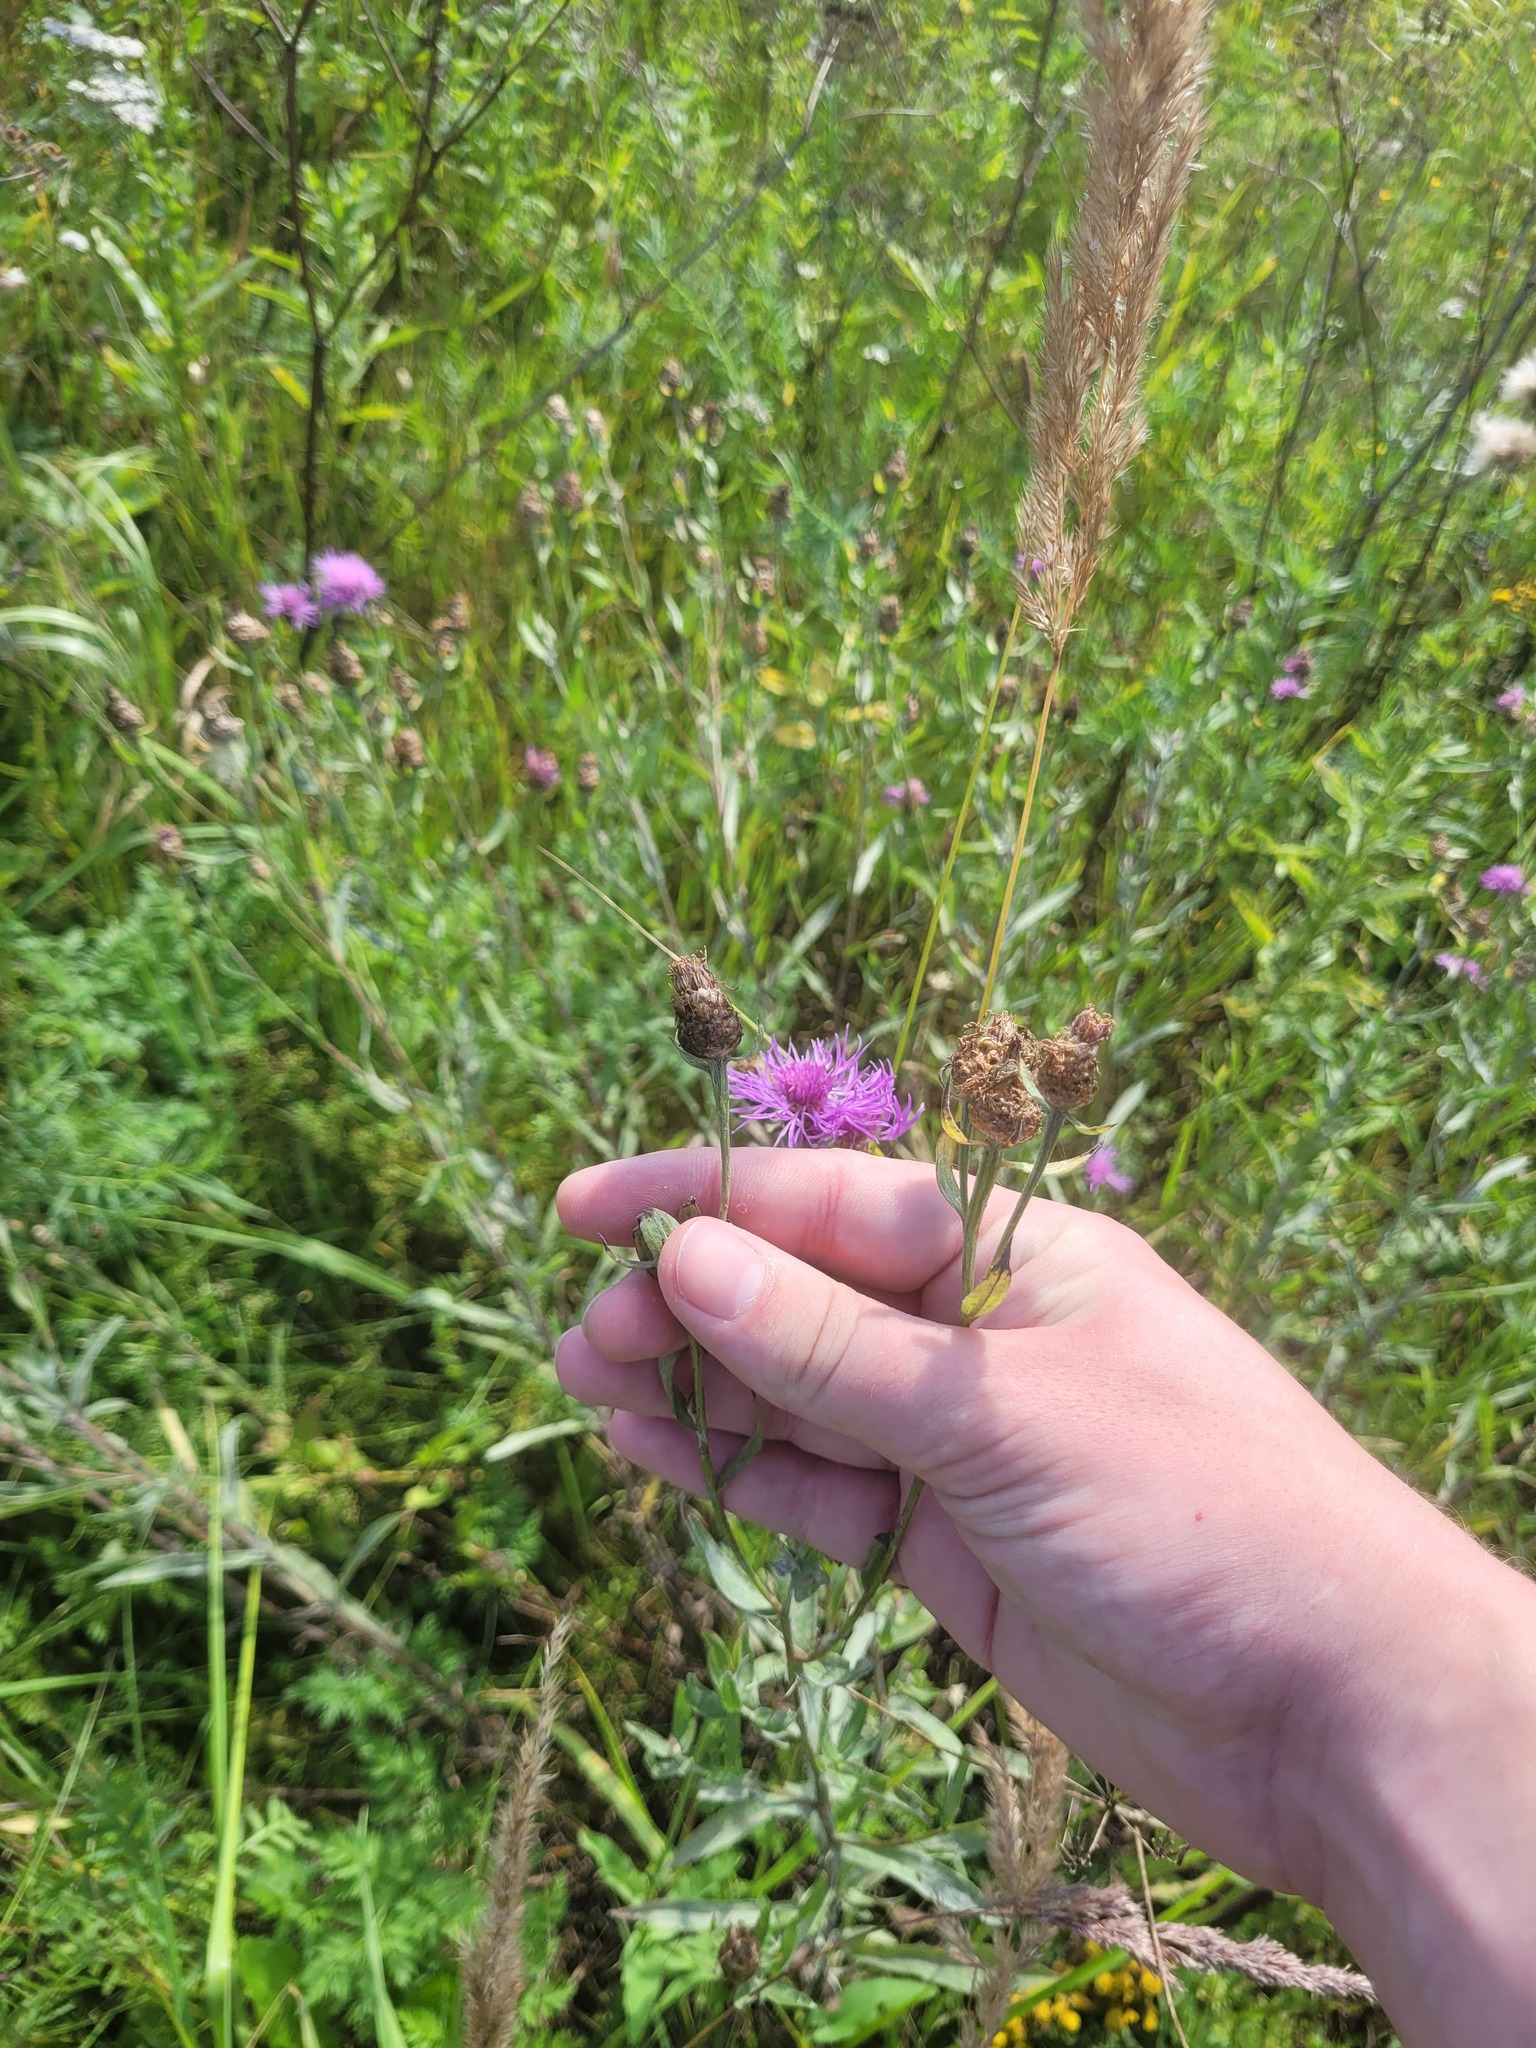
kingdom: Plantae
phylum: Tracheophyta
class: Magnoliopsida
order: Asterales
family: Asteraceae
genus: Centaurea
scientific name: Centaurea jacea
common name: Brown knapweed
